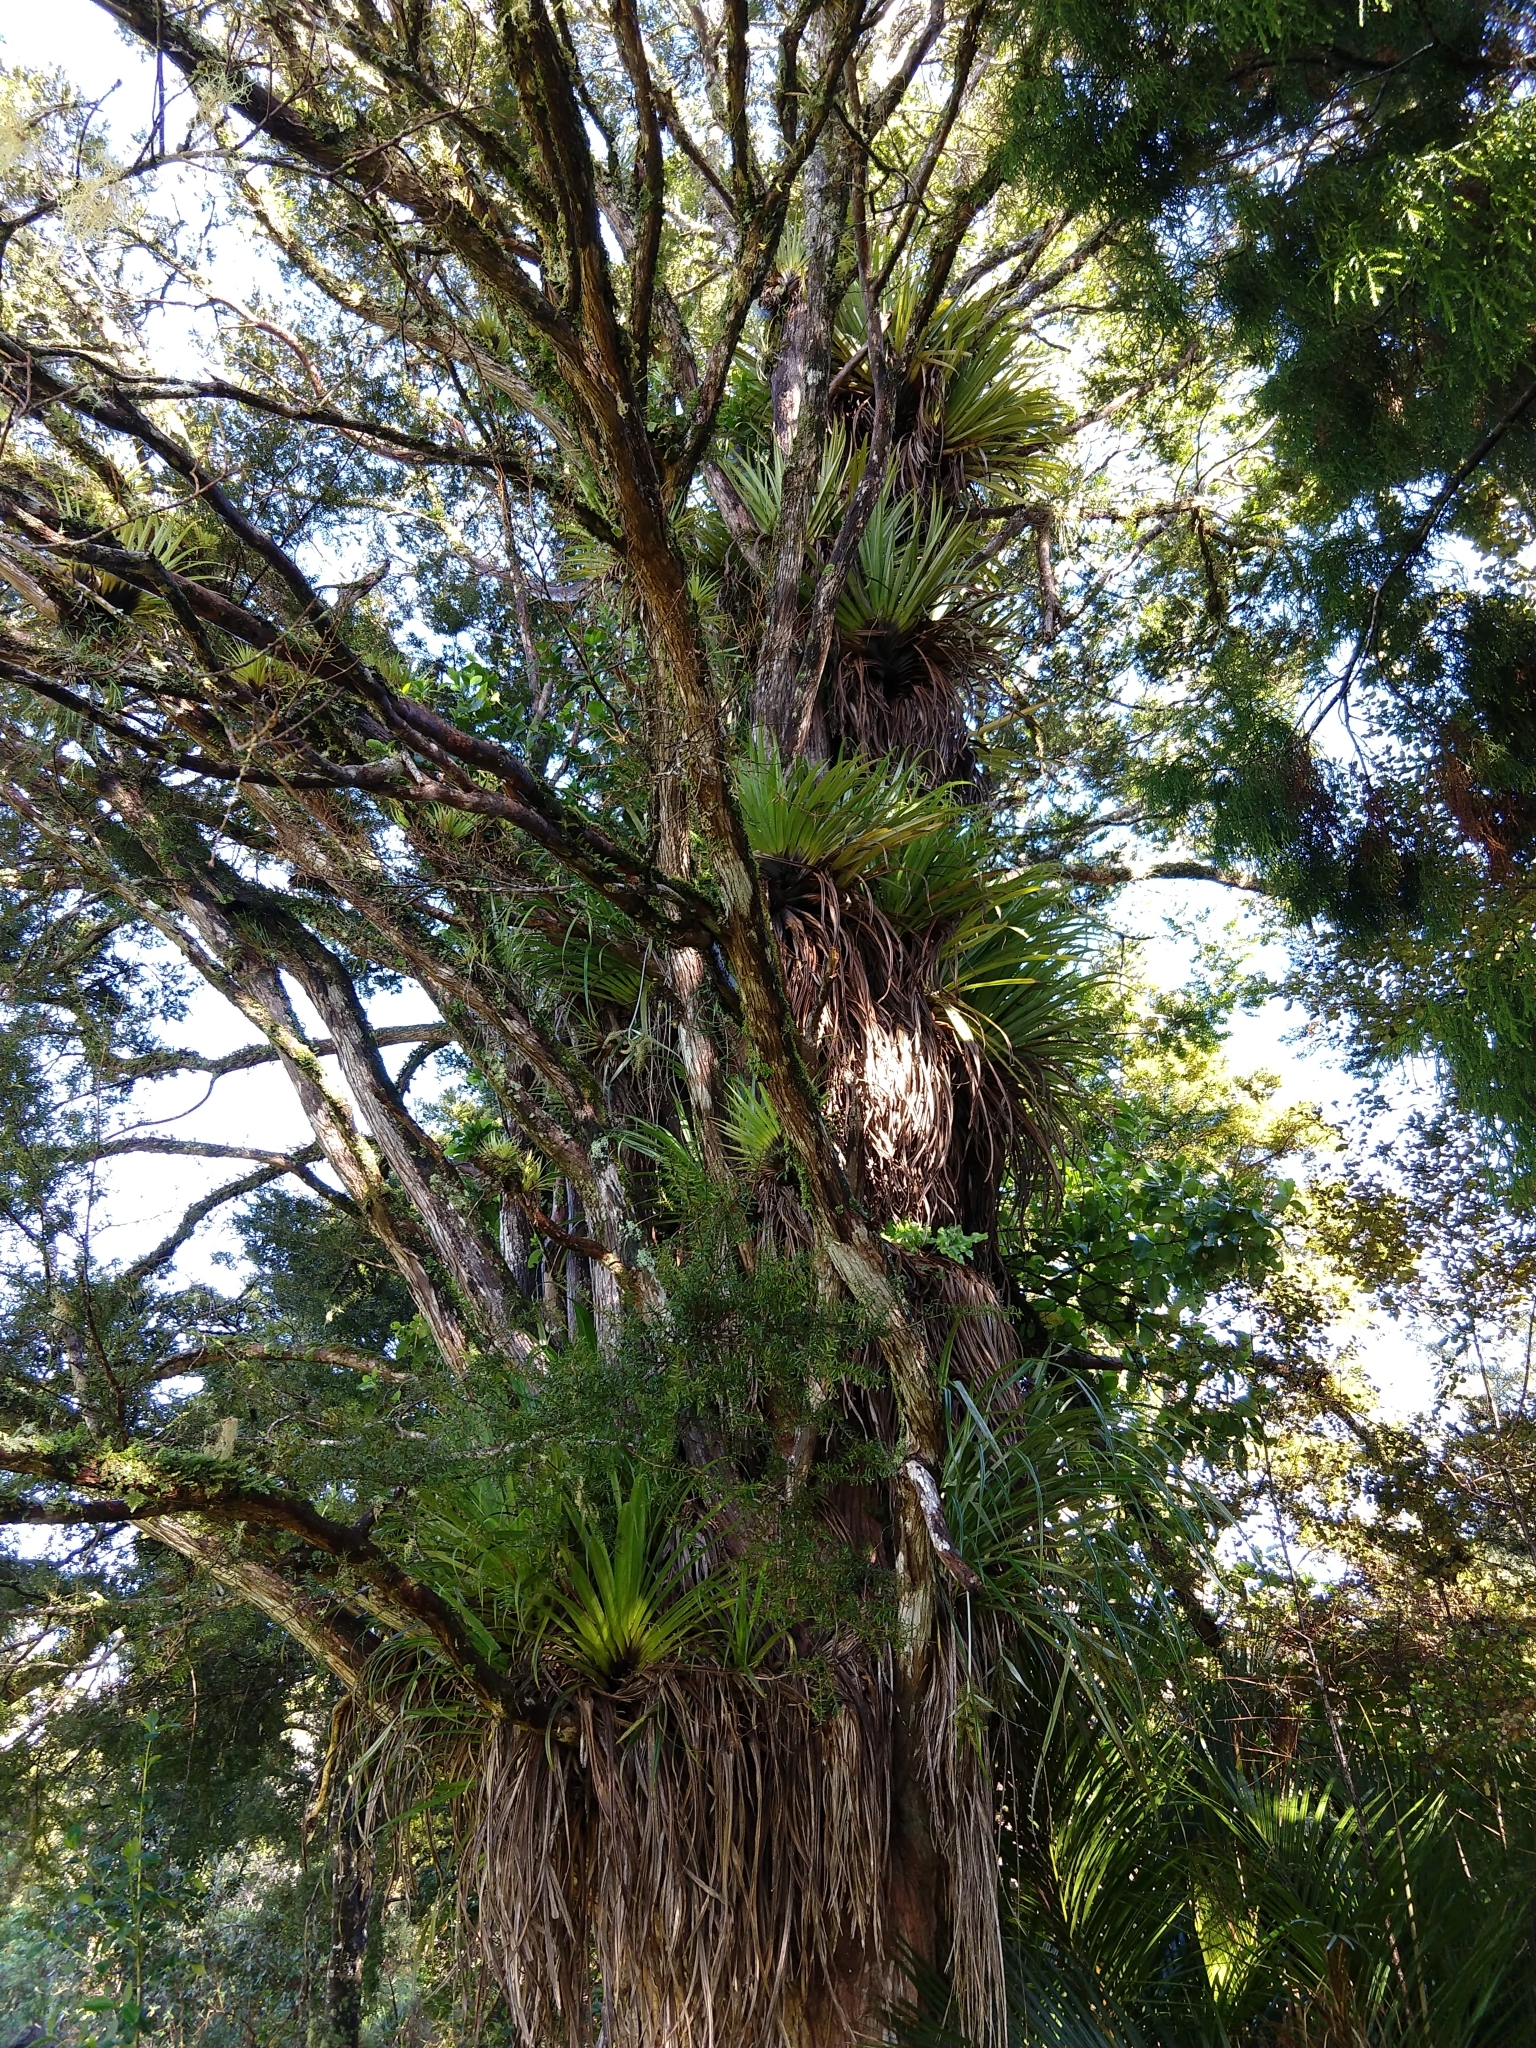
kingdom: Plantae
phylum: Tracheophyta
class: Pinopsida
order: Pinales
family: Podocarpaceae
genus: Podocarpus
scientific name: Podocarpus totara
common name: Totara
